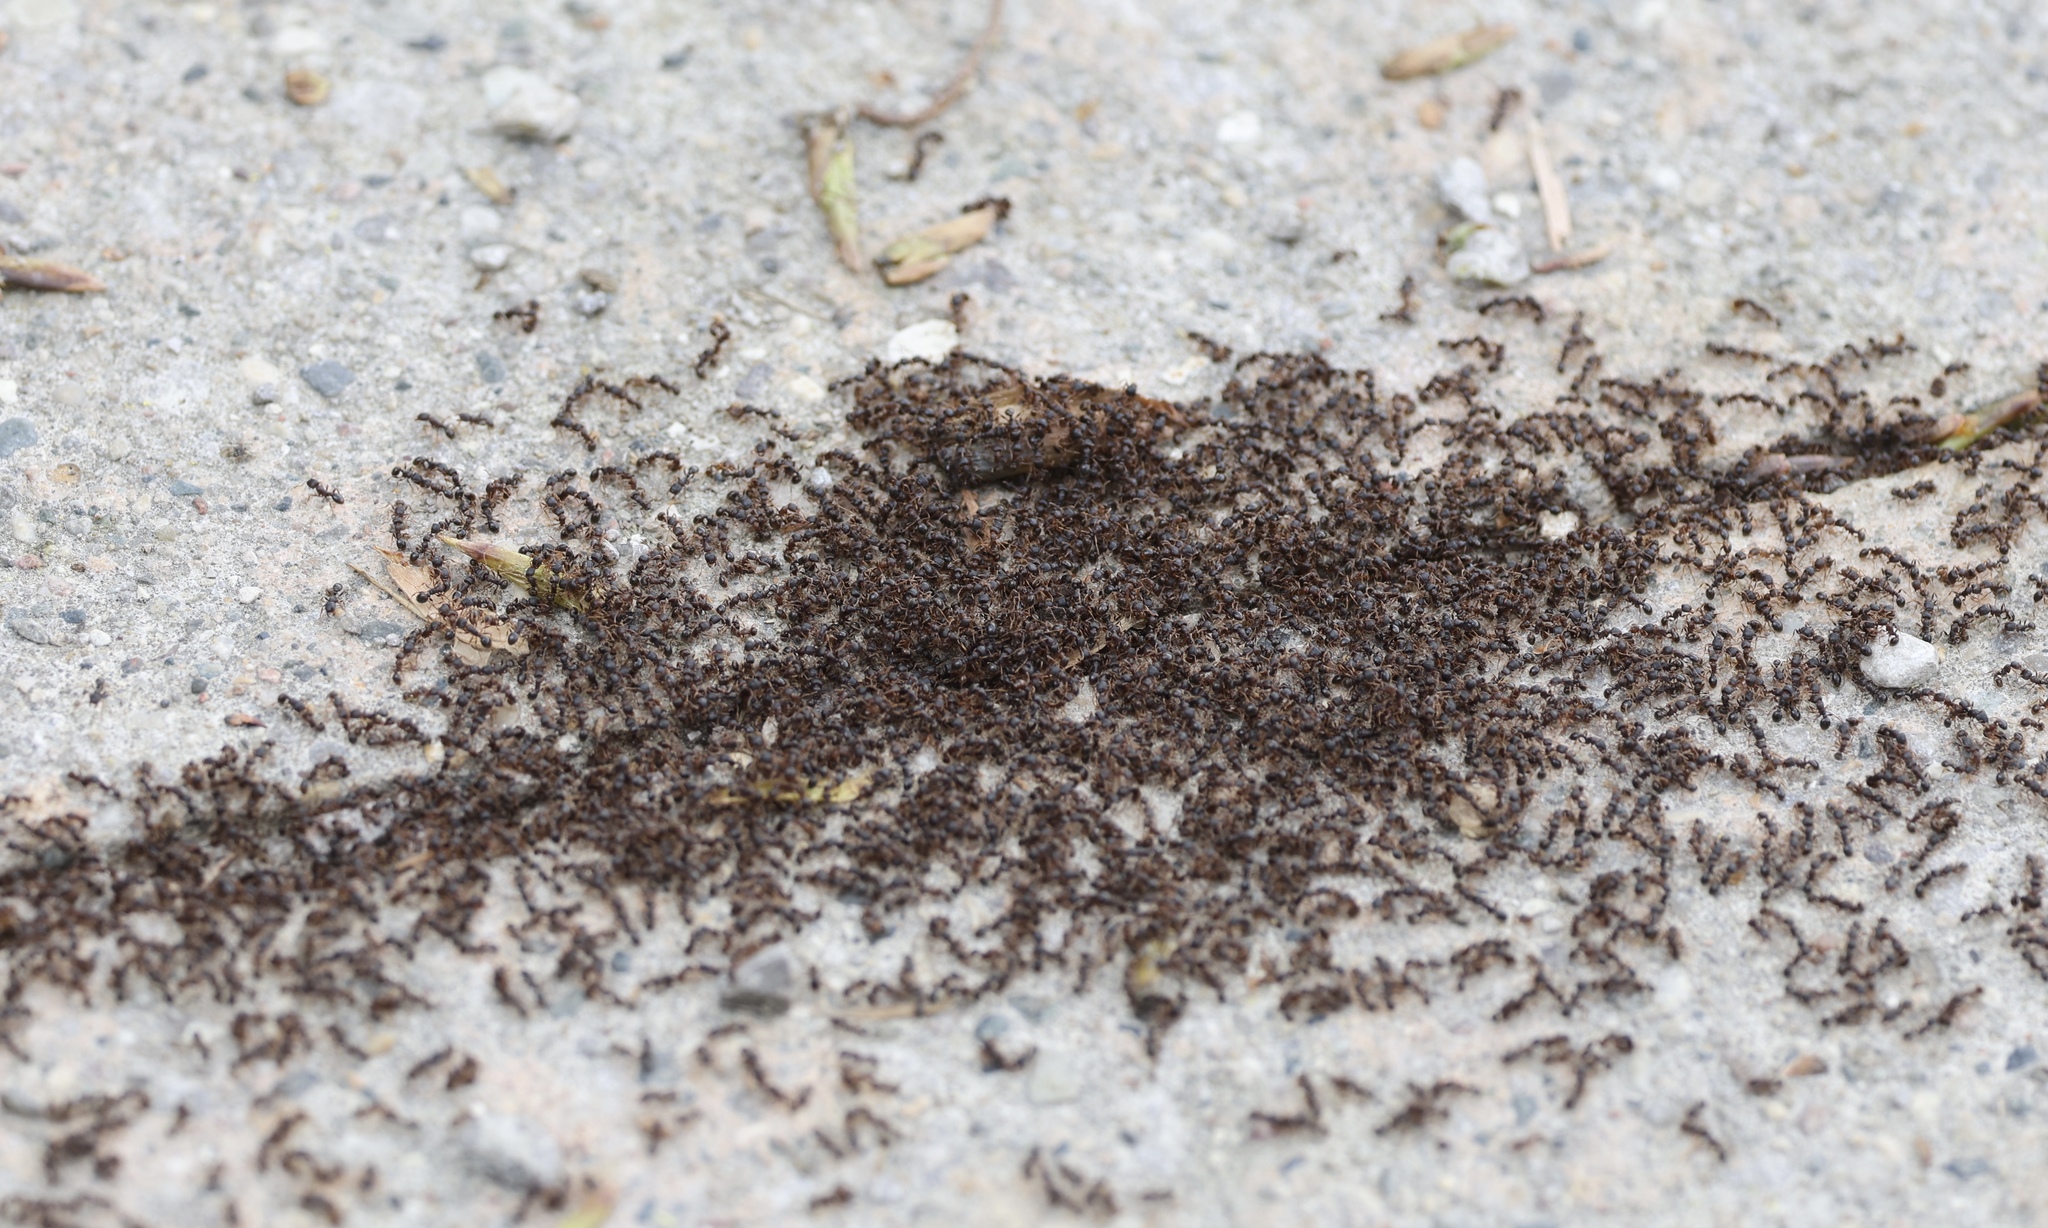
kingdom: Animalia
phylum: Arthropoda
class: Insecta
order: Hymenoptera
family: Formicidae
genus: Tetramorium
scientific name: Tetramorium immigrans
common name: Pavement ant
